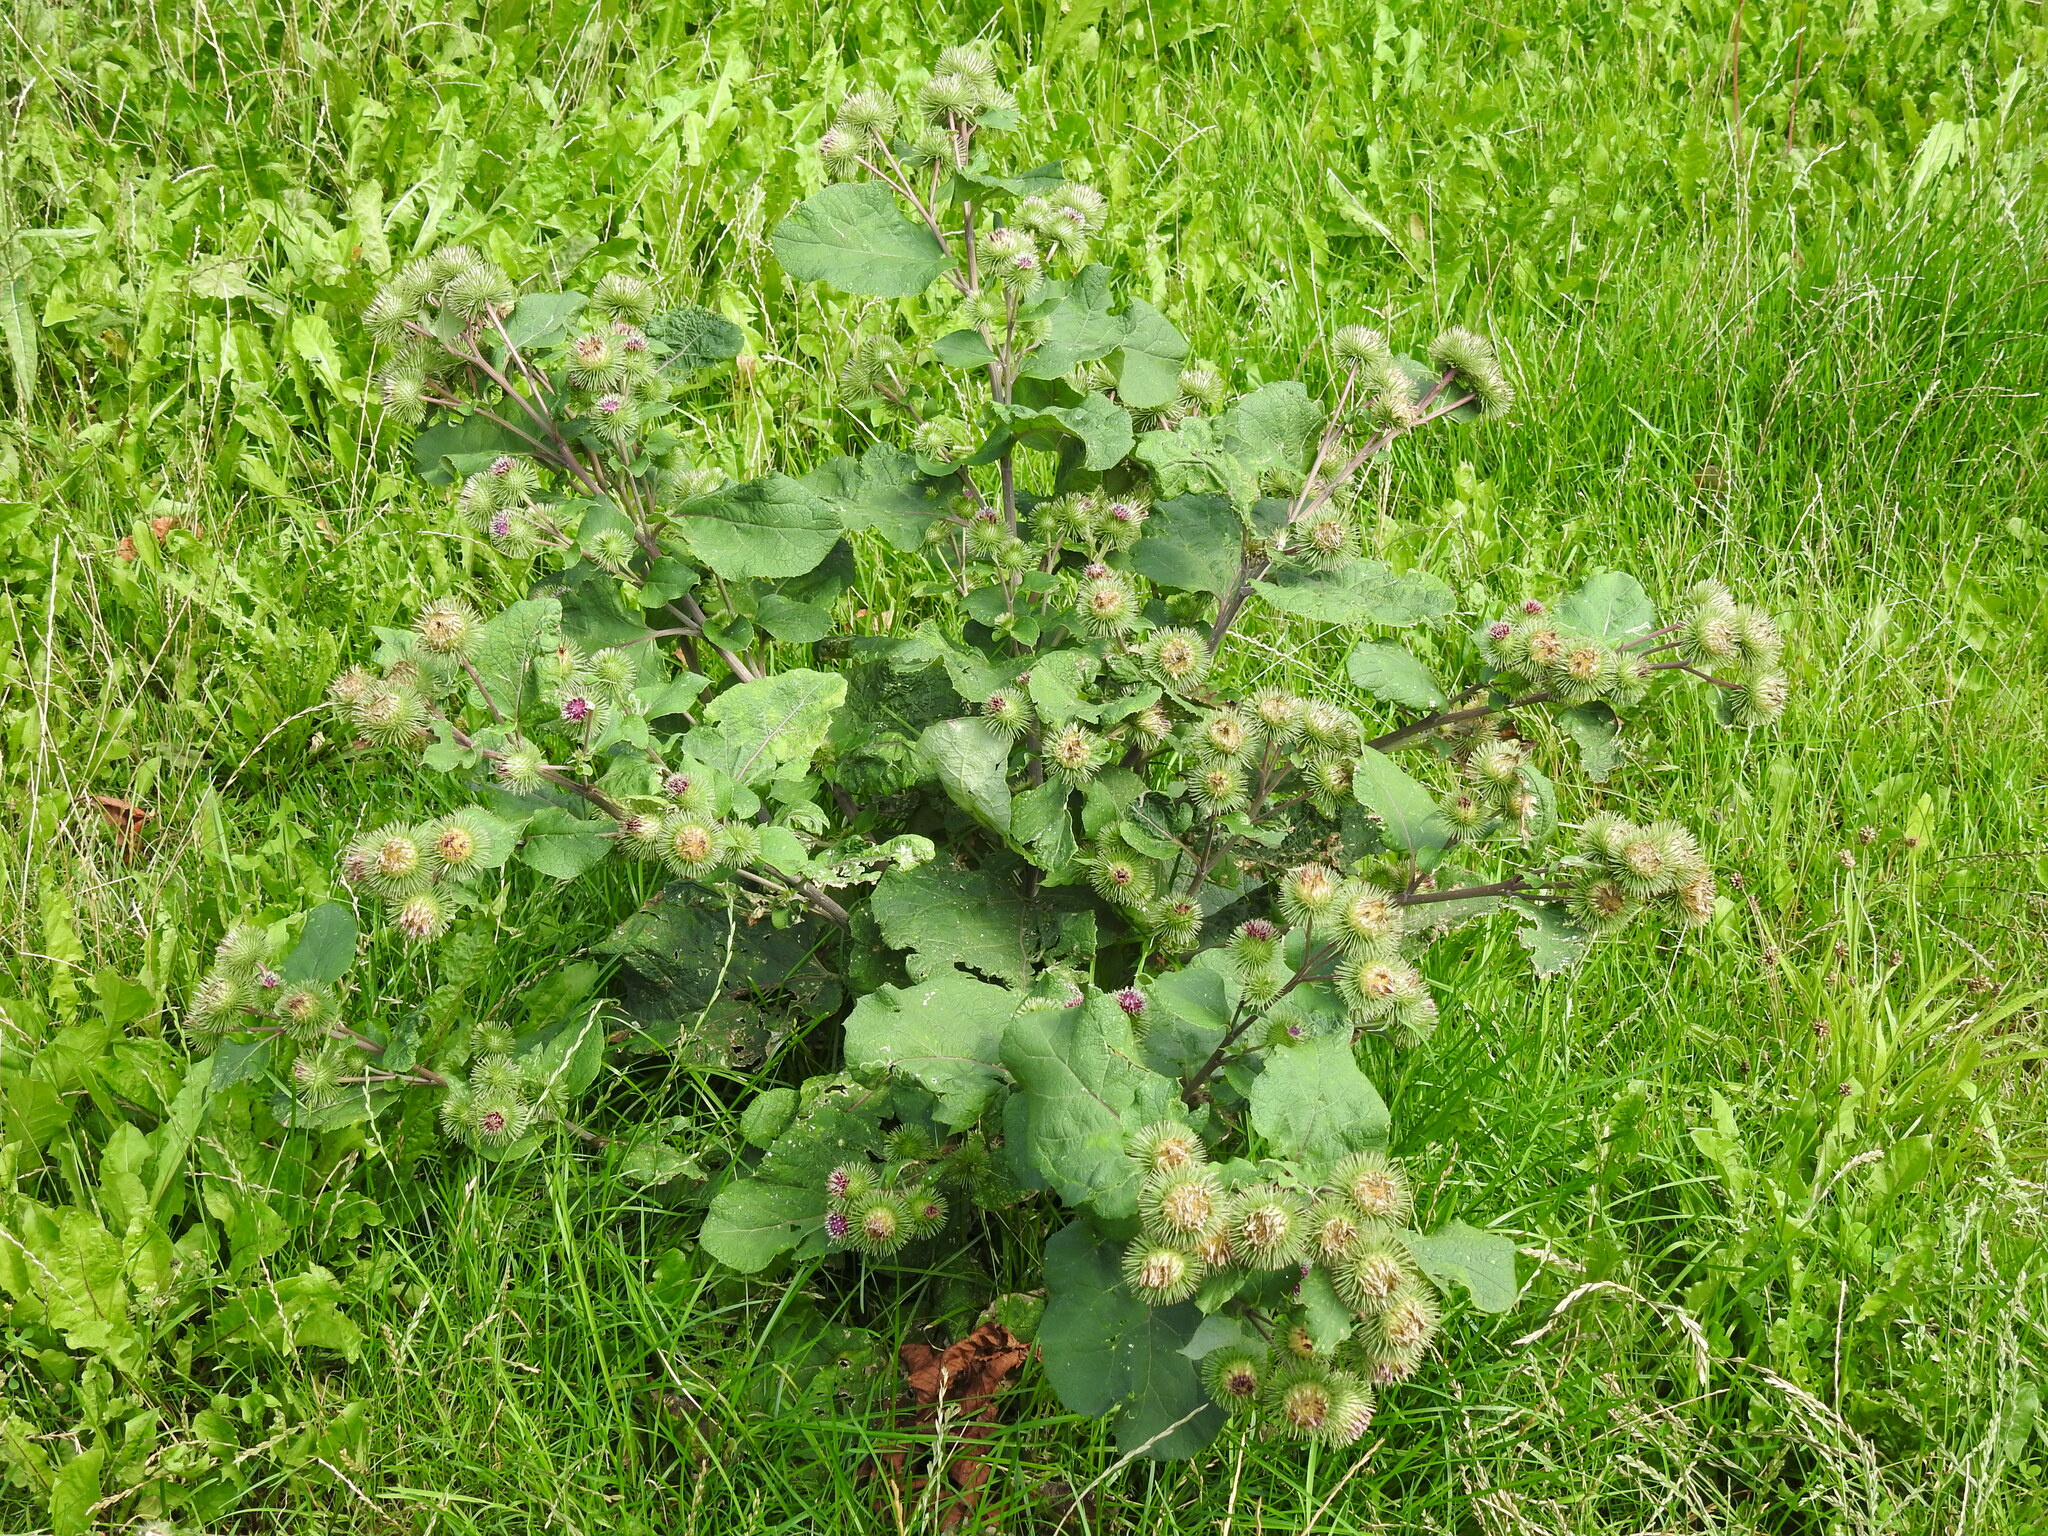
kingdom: Plantae
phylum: Tracheophyta
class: Magnoliopsida
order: Asterales
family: Asteraceae
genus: Arctium
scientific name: Arctium lappa
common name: Greater burdock
